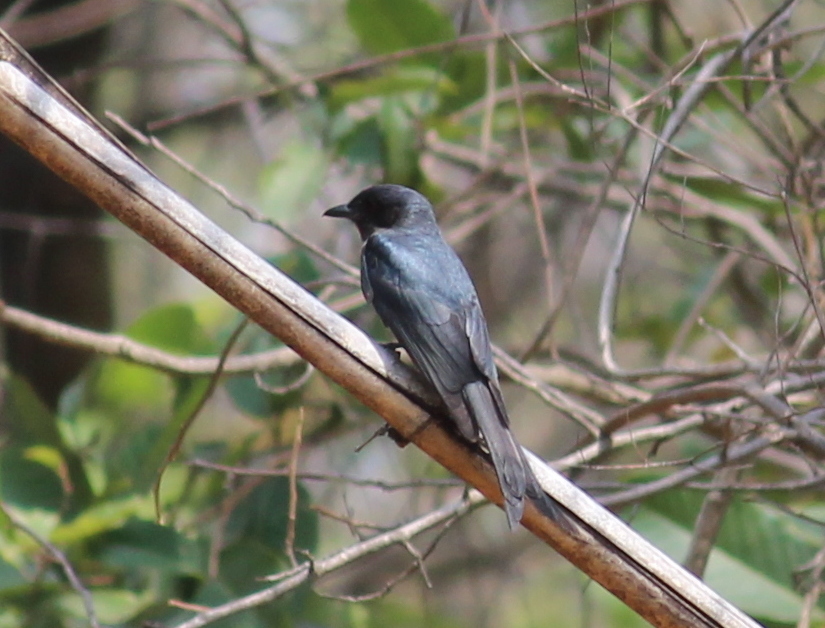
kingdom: Animalia
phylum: Chordata
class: Aves
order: Passeriformes
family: Dicruridae
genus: Dicrurus
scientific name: Dicrurus macrocercus
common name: Black drongo
